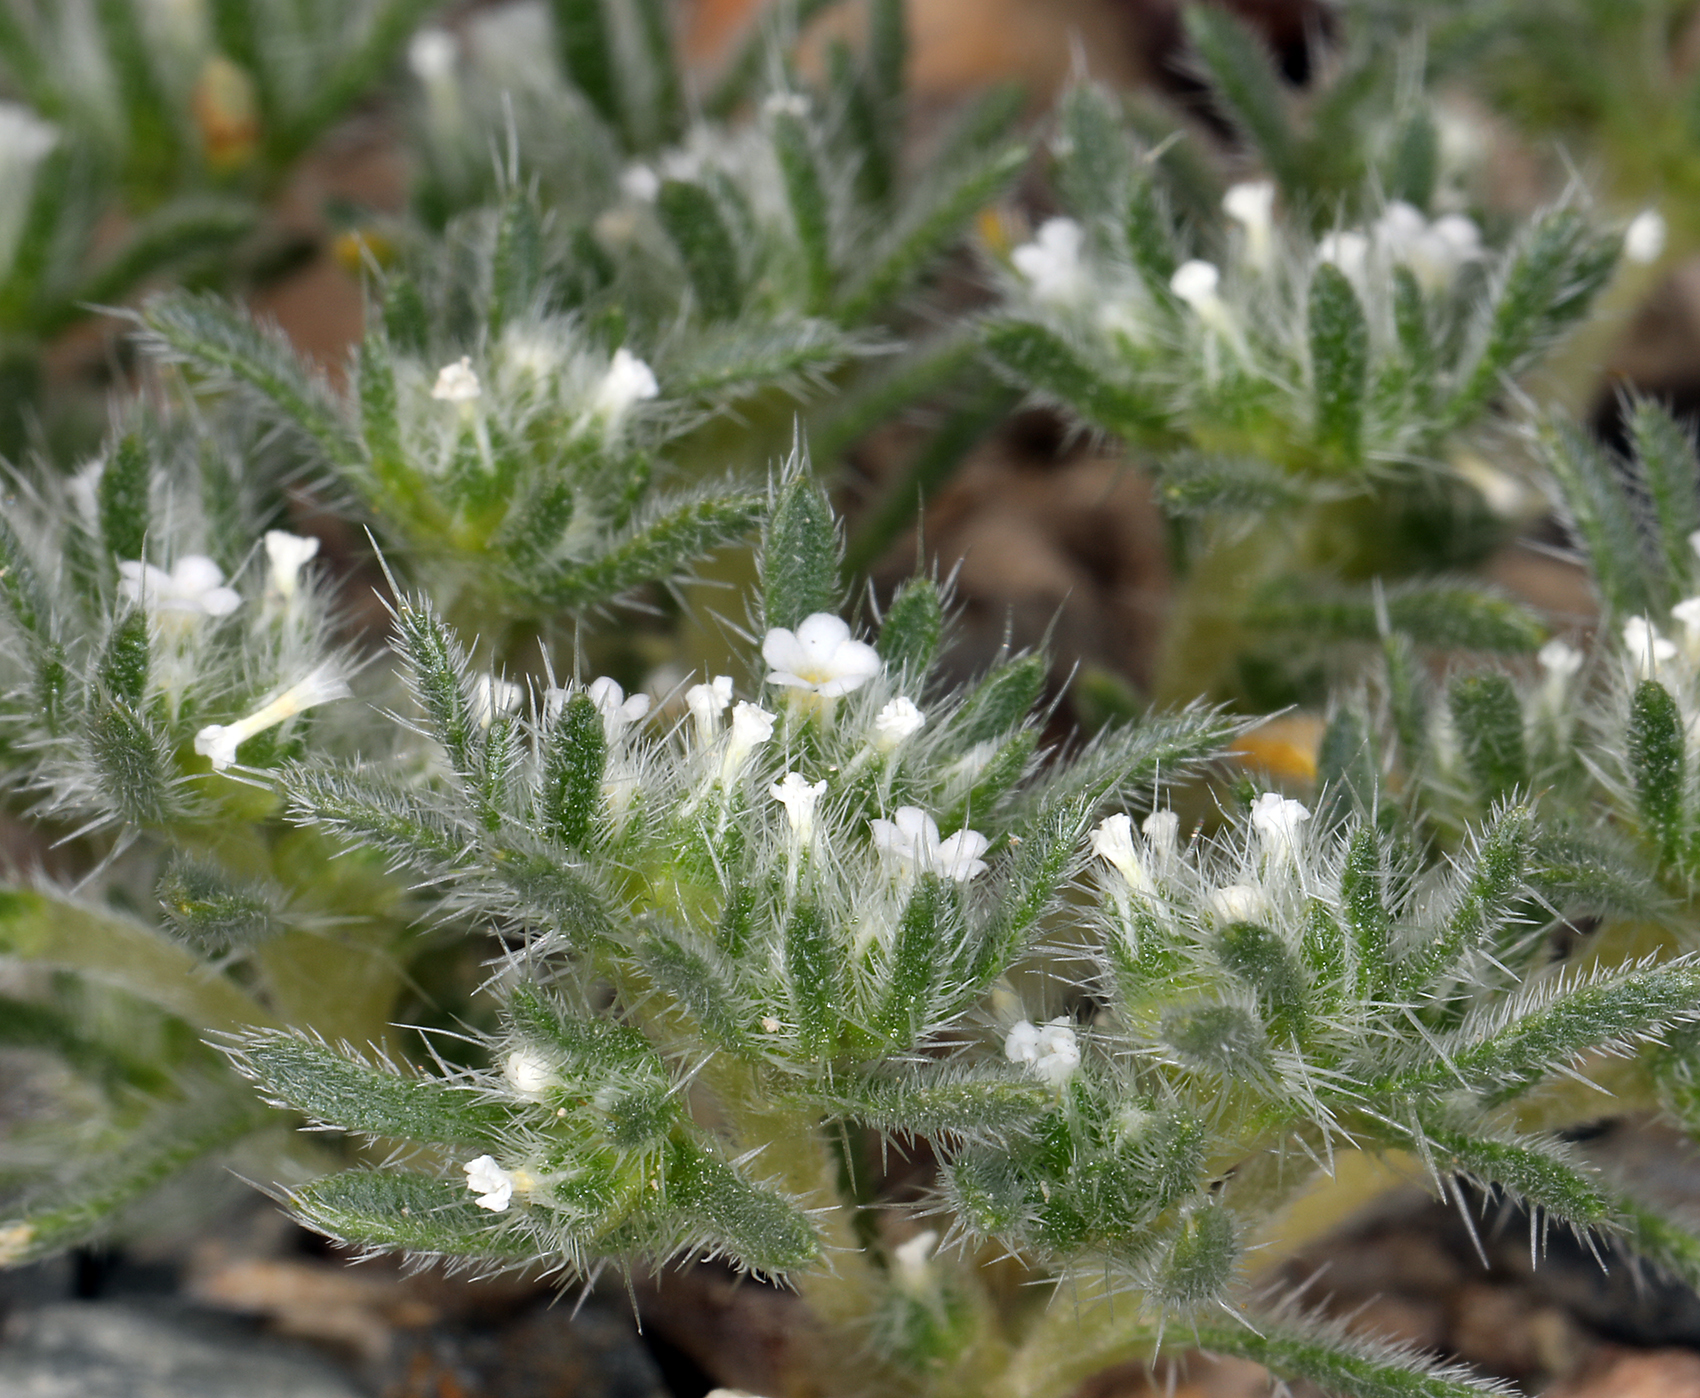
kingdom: Plantae
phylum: Tracheophyta
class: Magnoliopsida
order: Boraginales
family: Boraginaceae
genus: Greeneocharis
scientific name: Greeneocharis circumscissa
